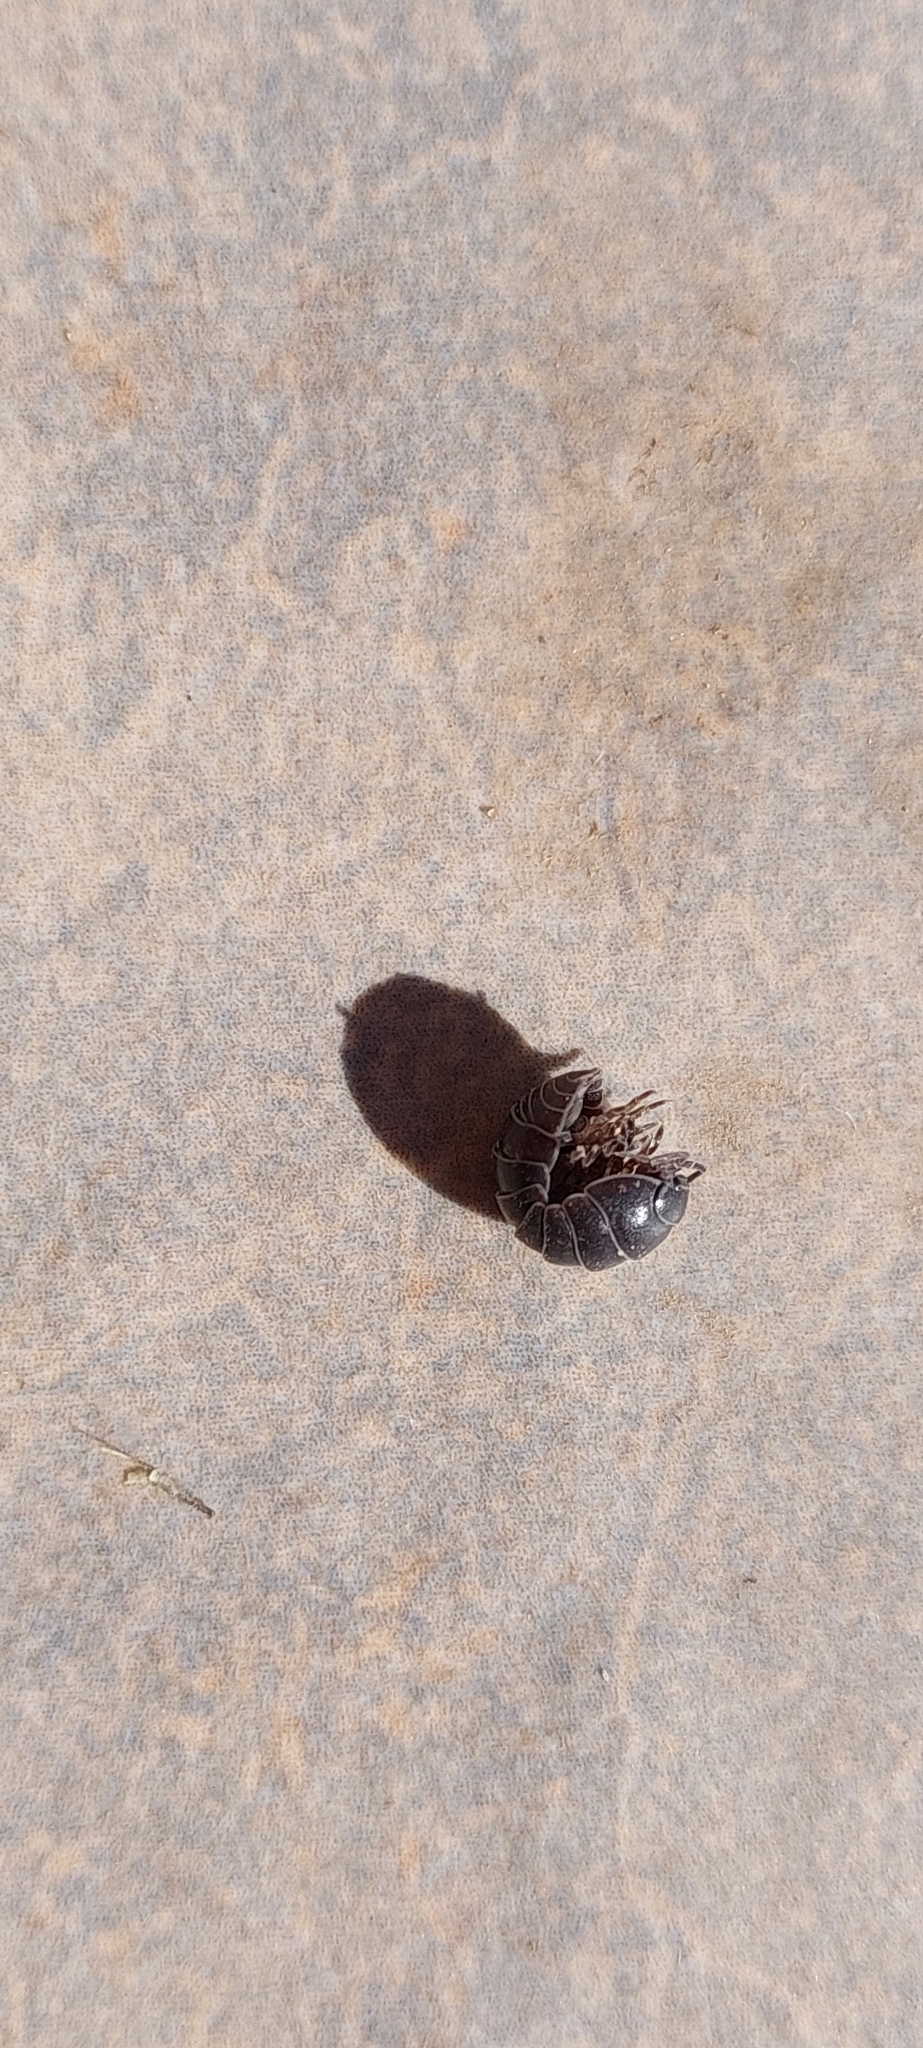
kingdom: Animalia
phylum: Arthropoda
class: Malacostraca
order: Isopoda
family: Armadillidiidae
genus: Armadillidium
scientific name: Armadillidium vulgare
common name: Common pill woodlouse
